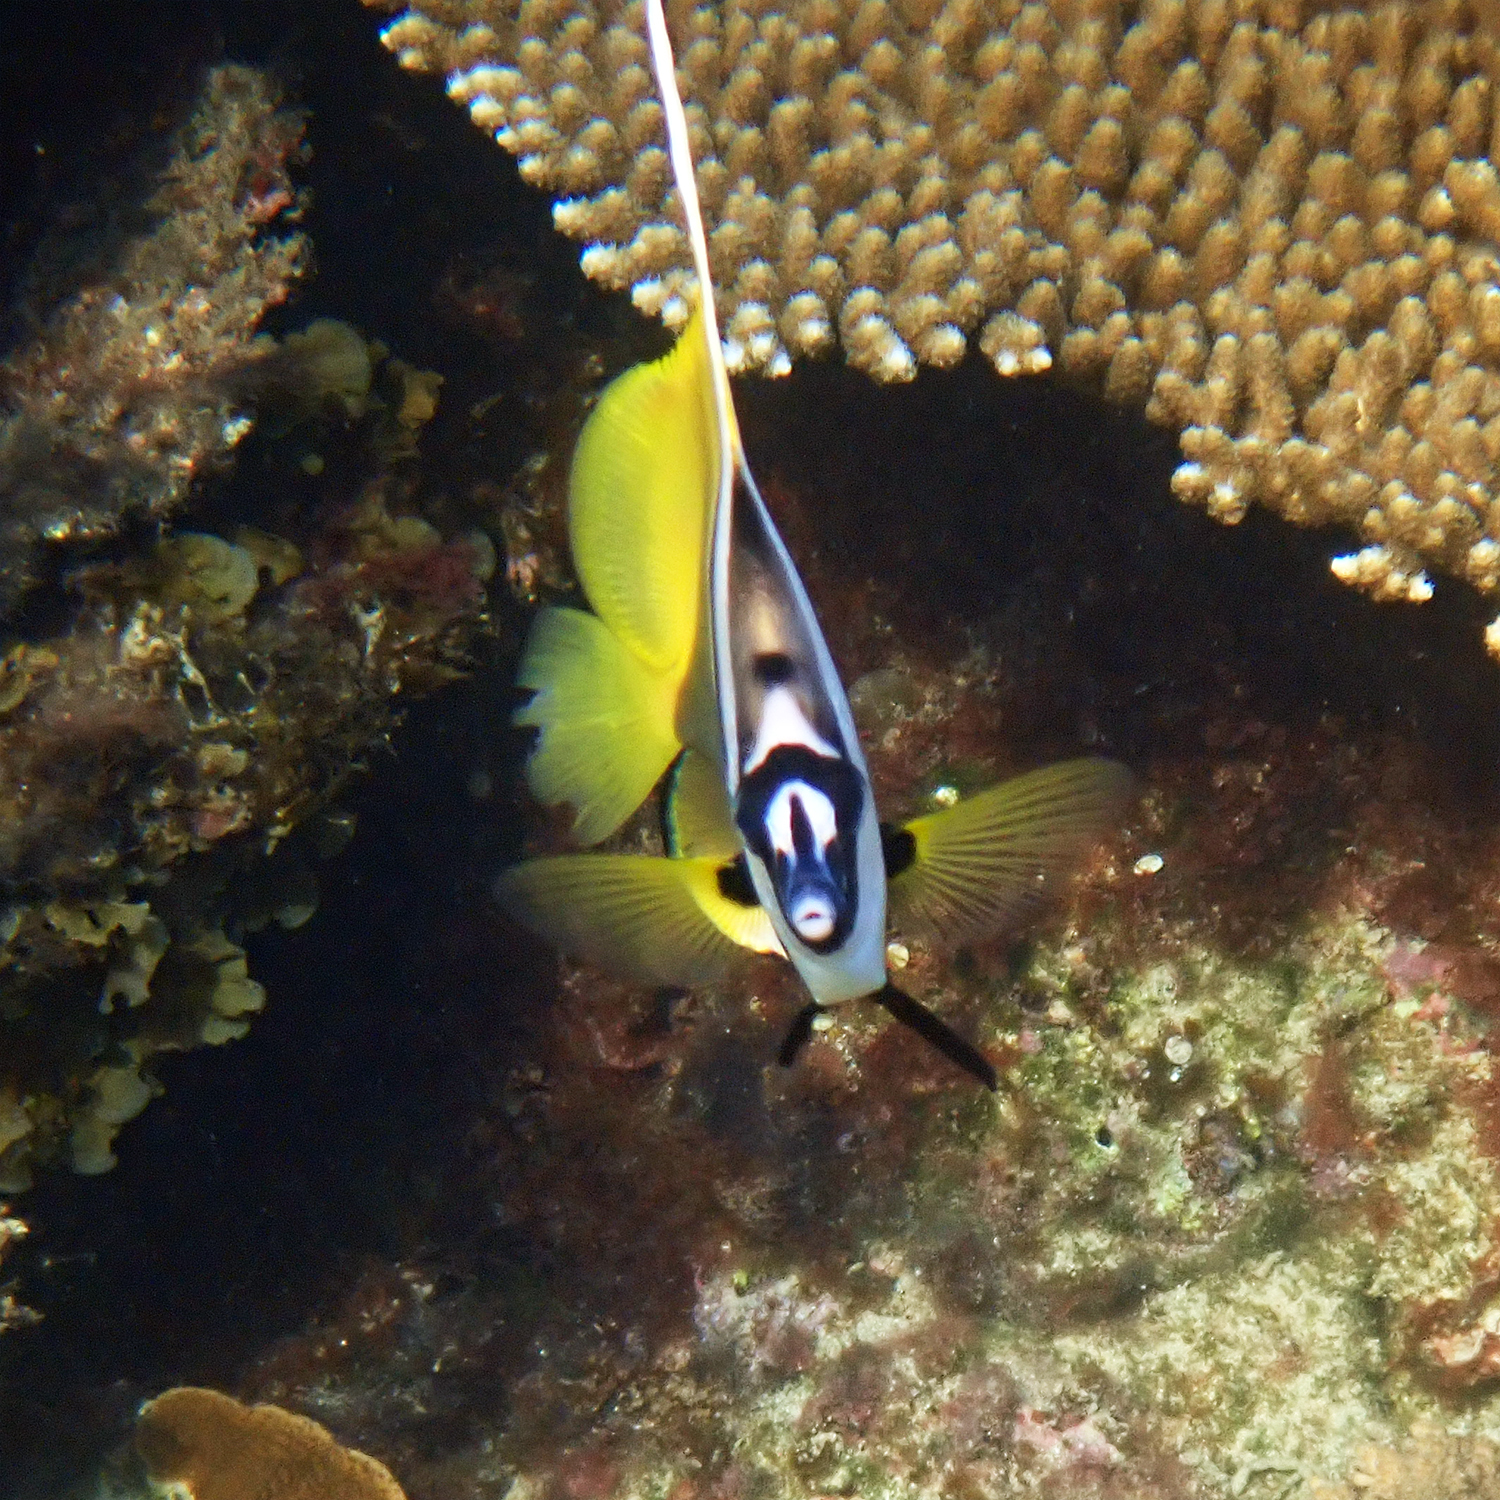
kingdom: Animalia
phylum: Chordata
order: Perciformes
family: Chaetodontidae
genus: Heniochus
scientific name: Heniochus monoceros
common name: Masked bannerfish
